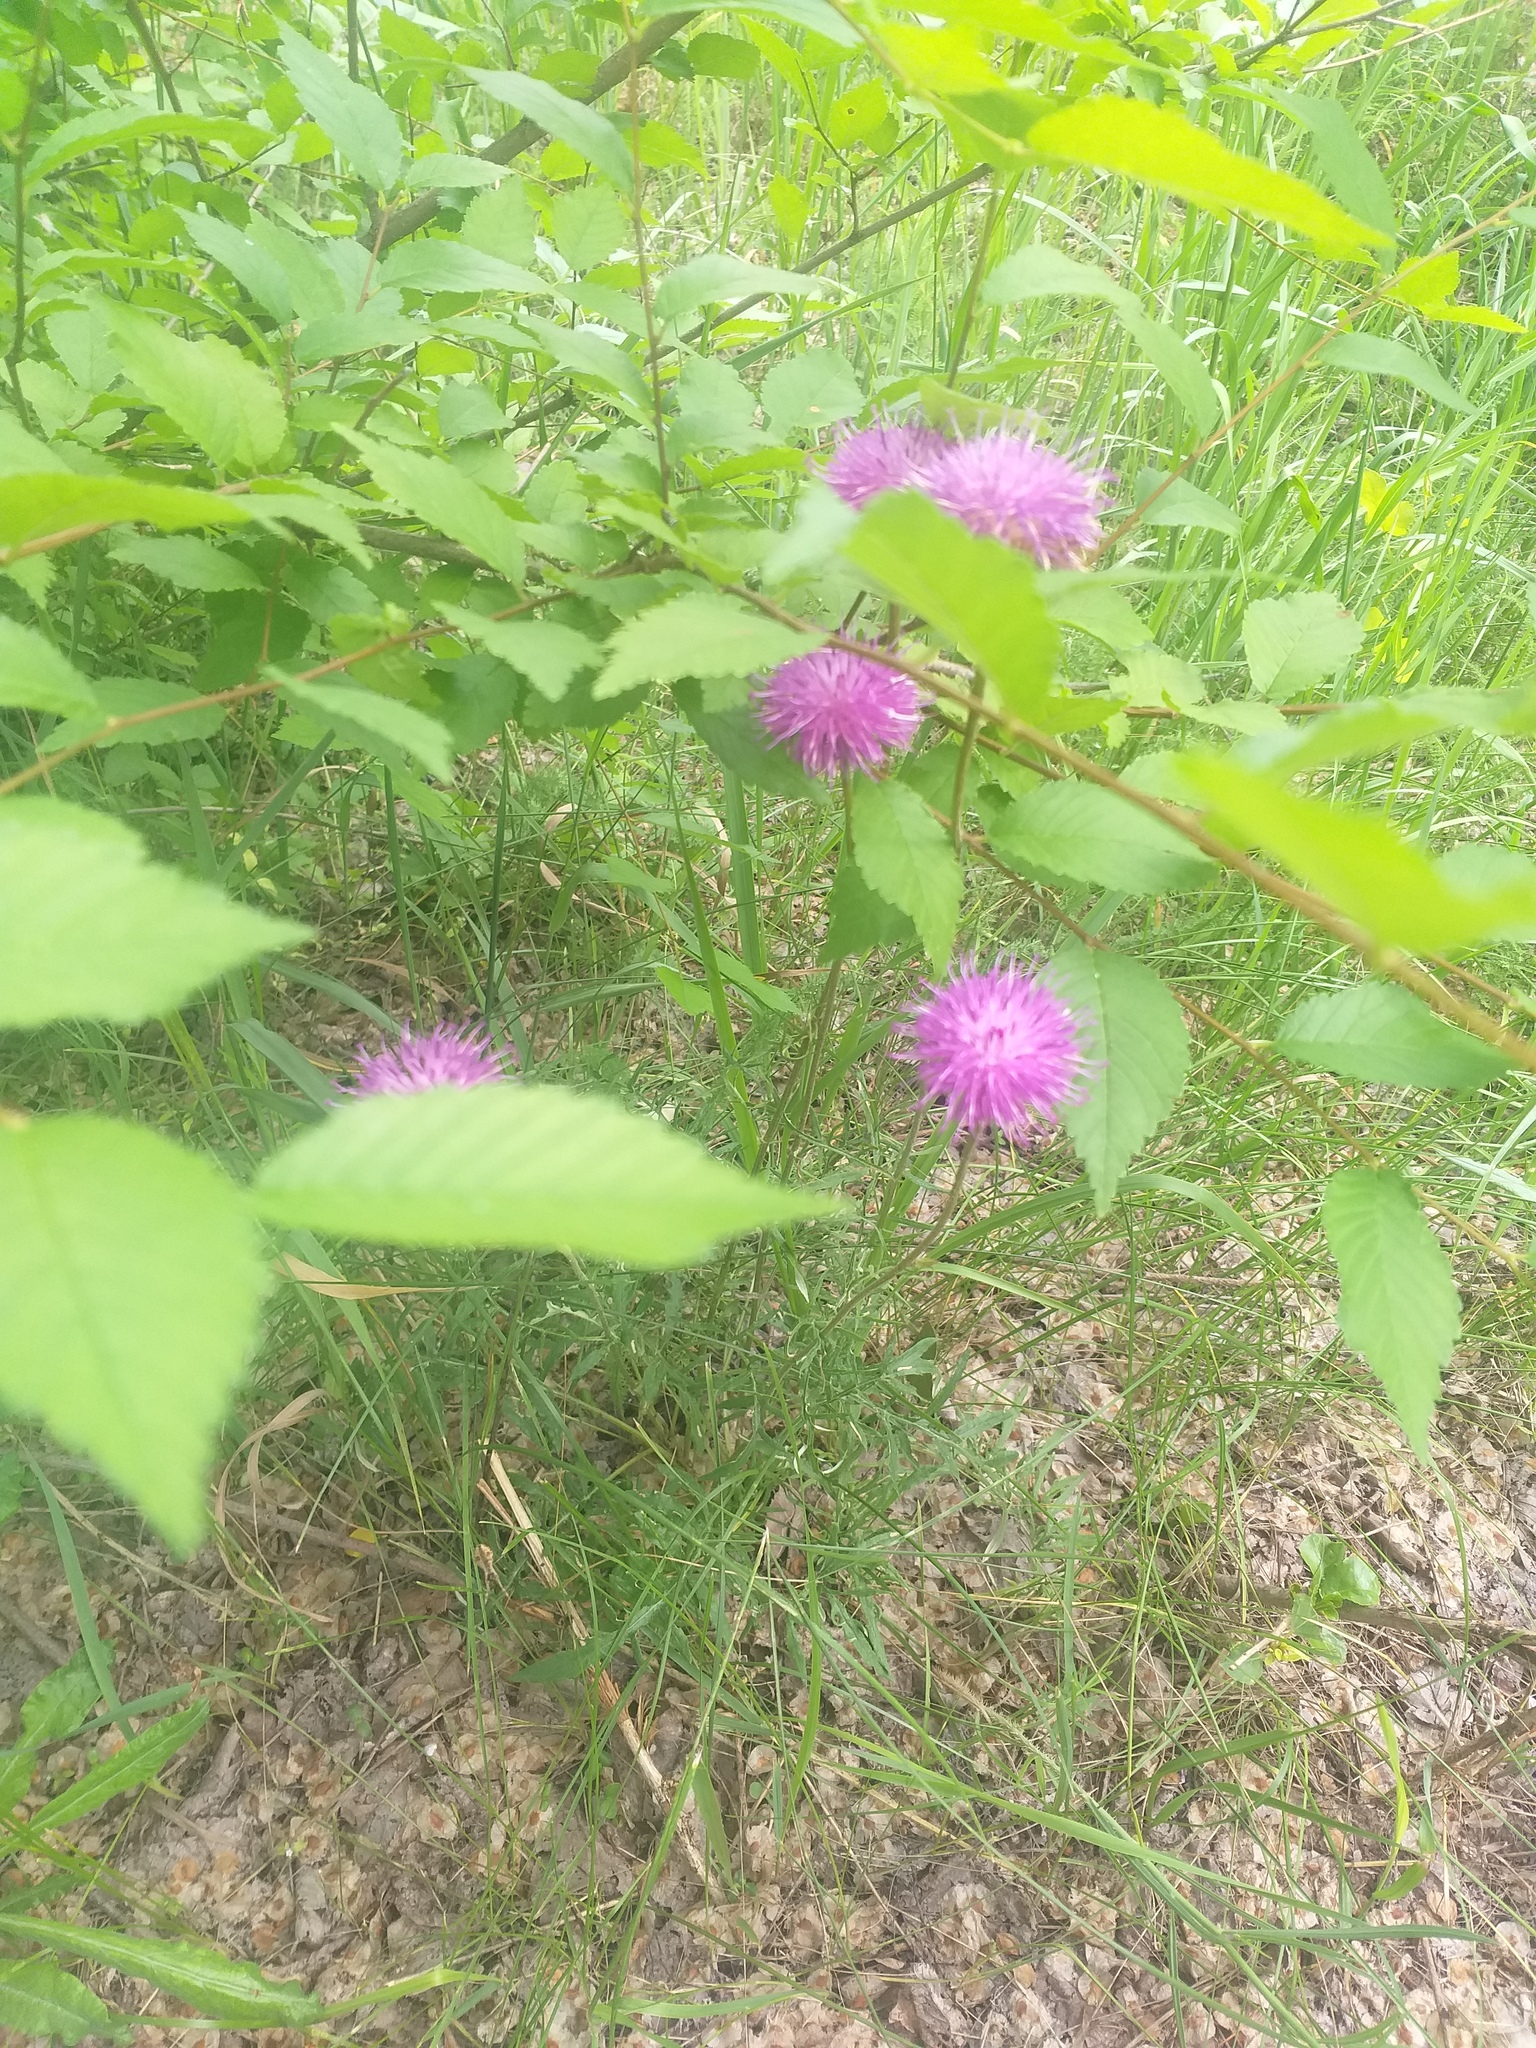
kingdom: Plantae
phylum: Tracheophyta
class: Magnoliopsida
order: Asterales
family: Asteraceae
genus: Jurinea
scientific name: Jurinea cyanoides
